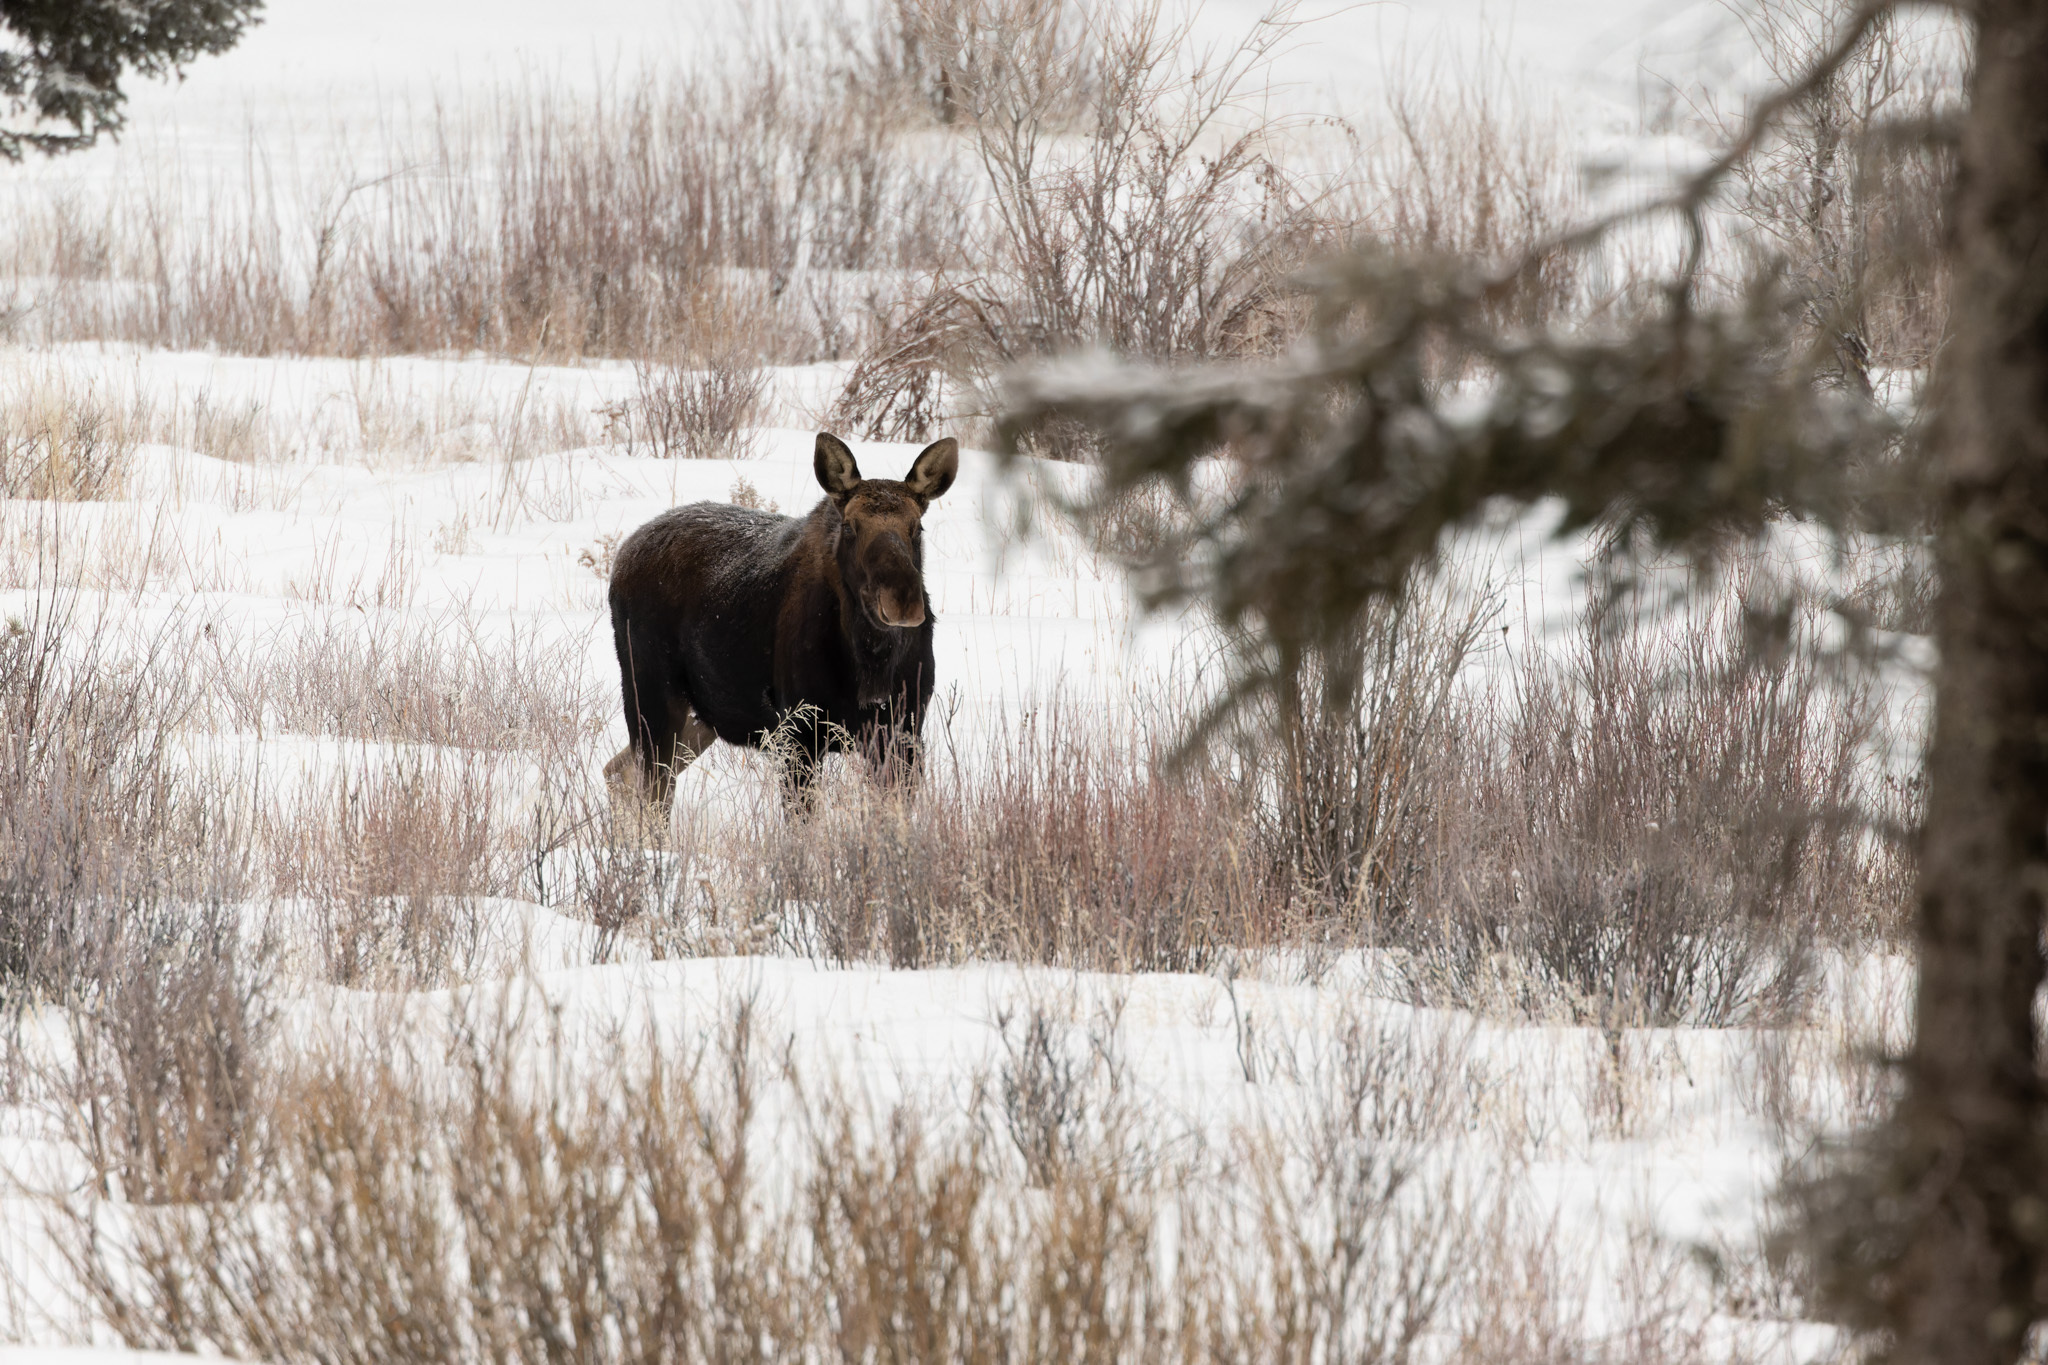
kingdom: Animalia
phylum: Chordata
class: Mammalia
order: Artiodactyla
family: Cervidae
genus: Alces
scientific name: Alces alces
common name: Moose
